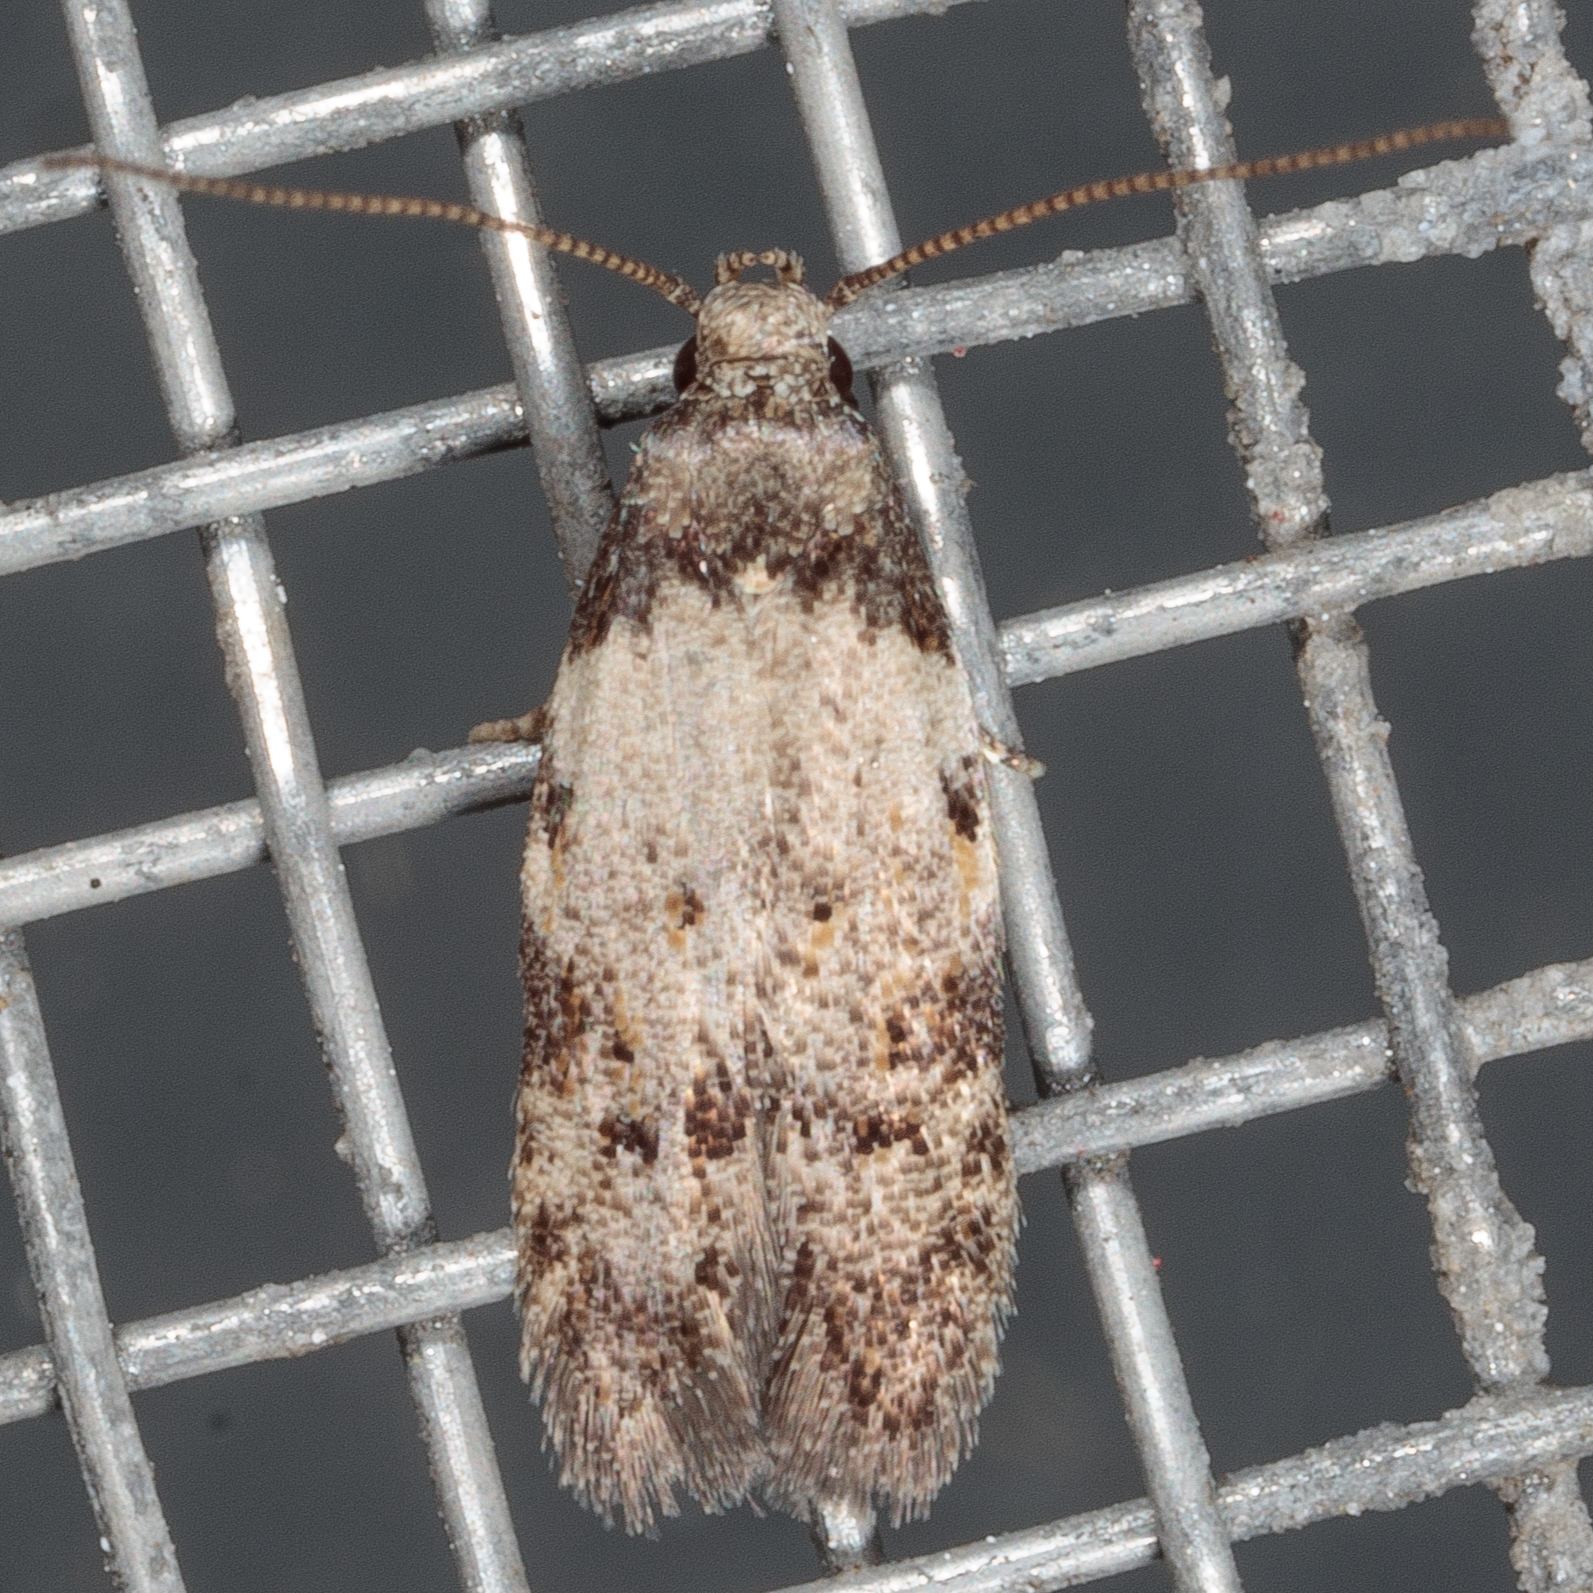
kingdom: Animalia
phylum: Arthropoda
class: Insecta
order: Lepidoptera
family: Autostichidae
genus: Taygete
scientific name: Taygete attributella
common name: Triangle-marked twirler moth
